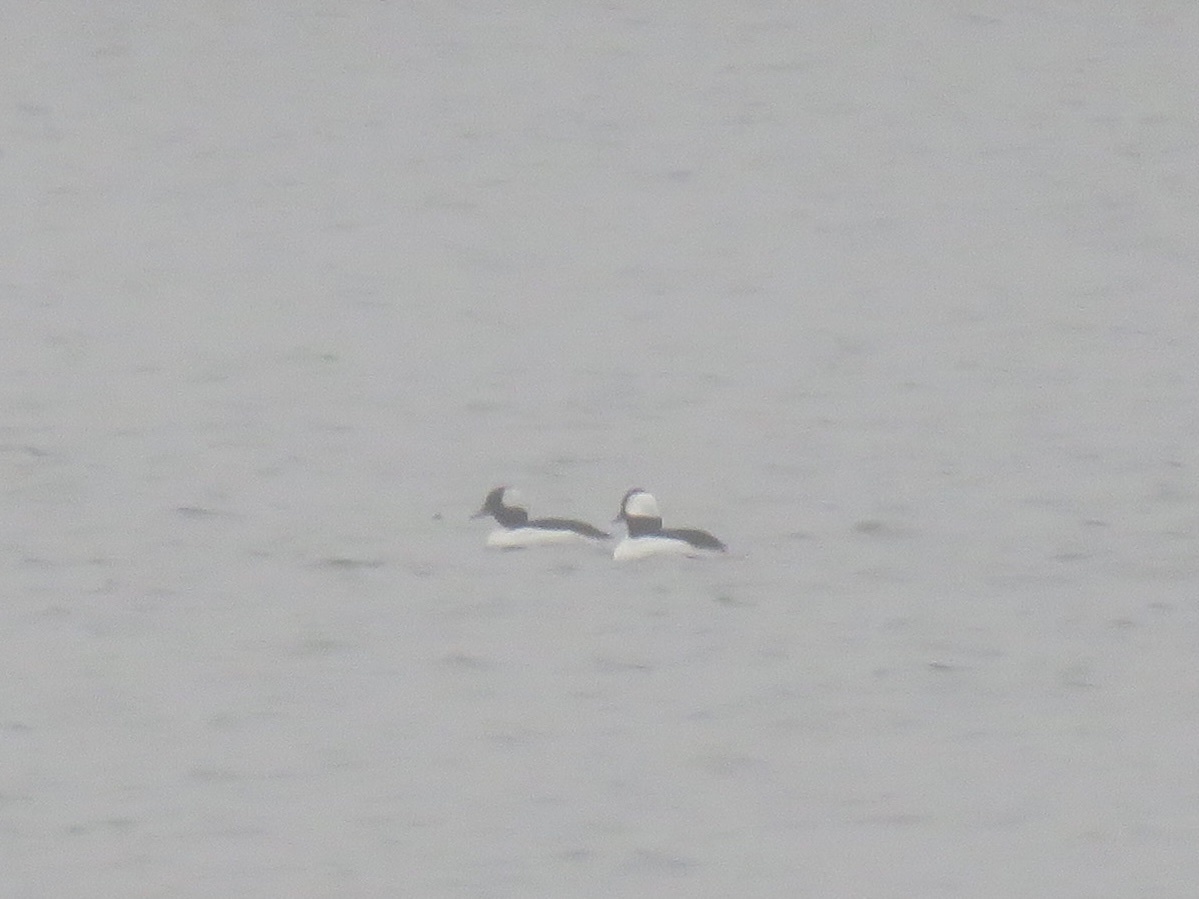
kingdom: Animalia
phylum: Chordata
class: Aves
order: Anseriformes
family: Anatidae
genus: Bucephala
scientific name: Bucephala albeola
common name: Bufflehead
